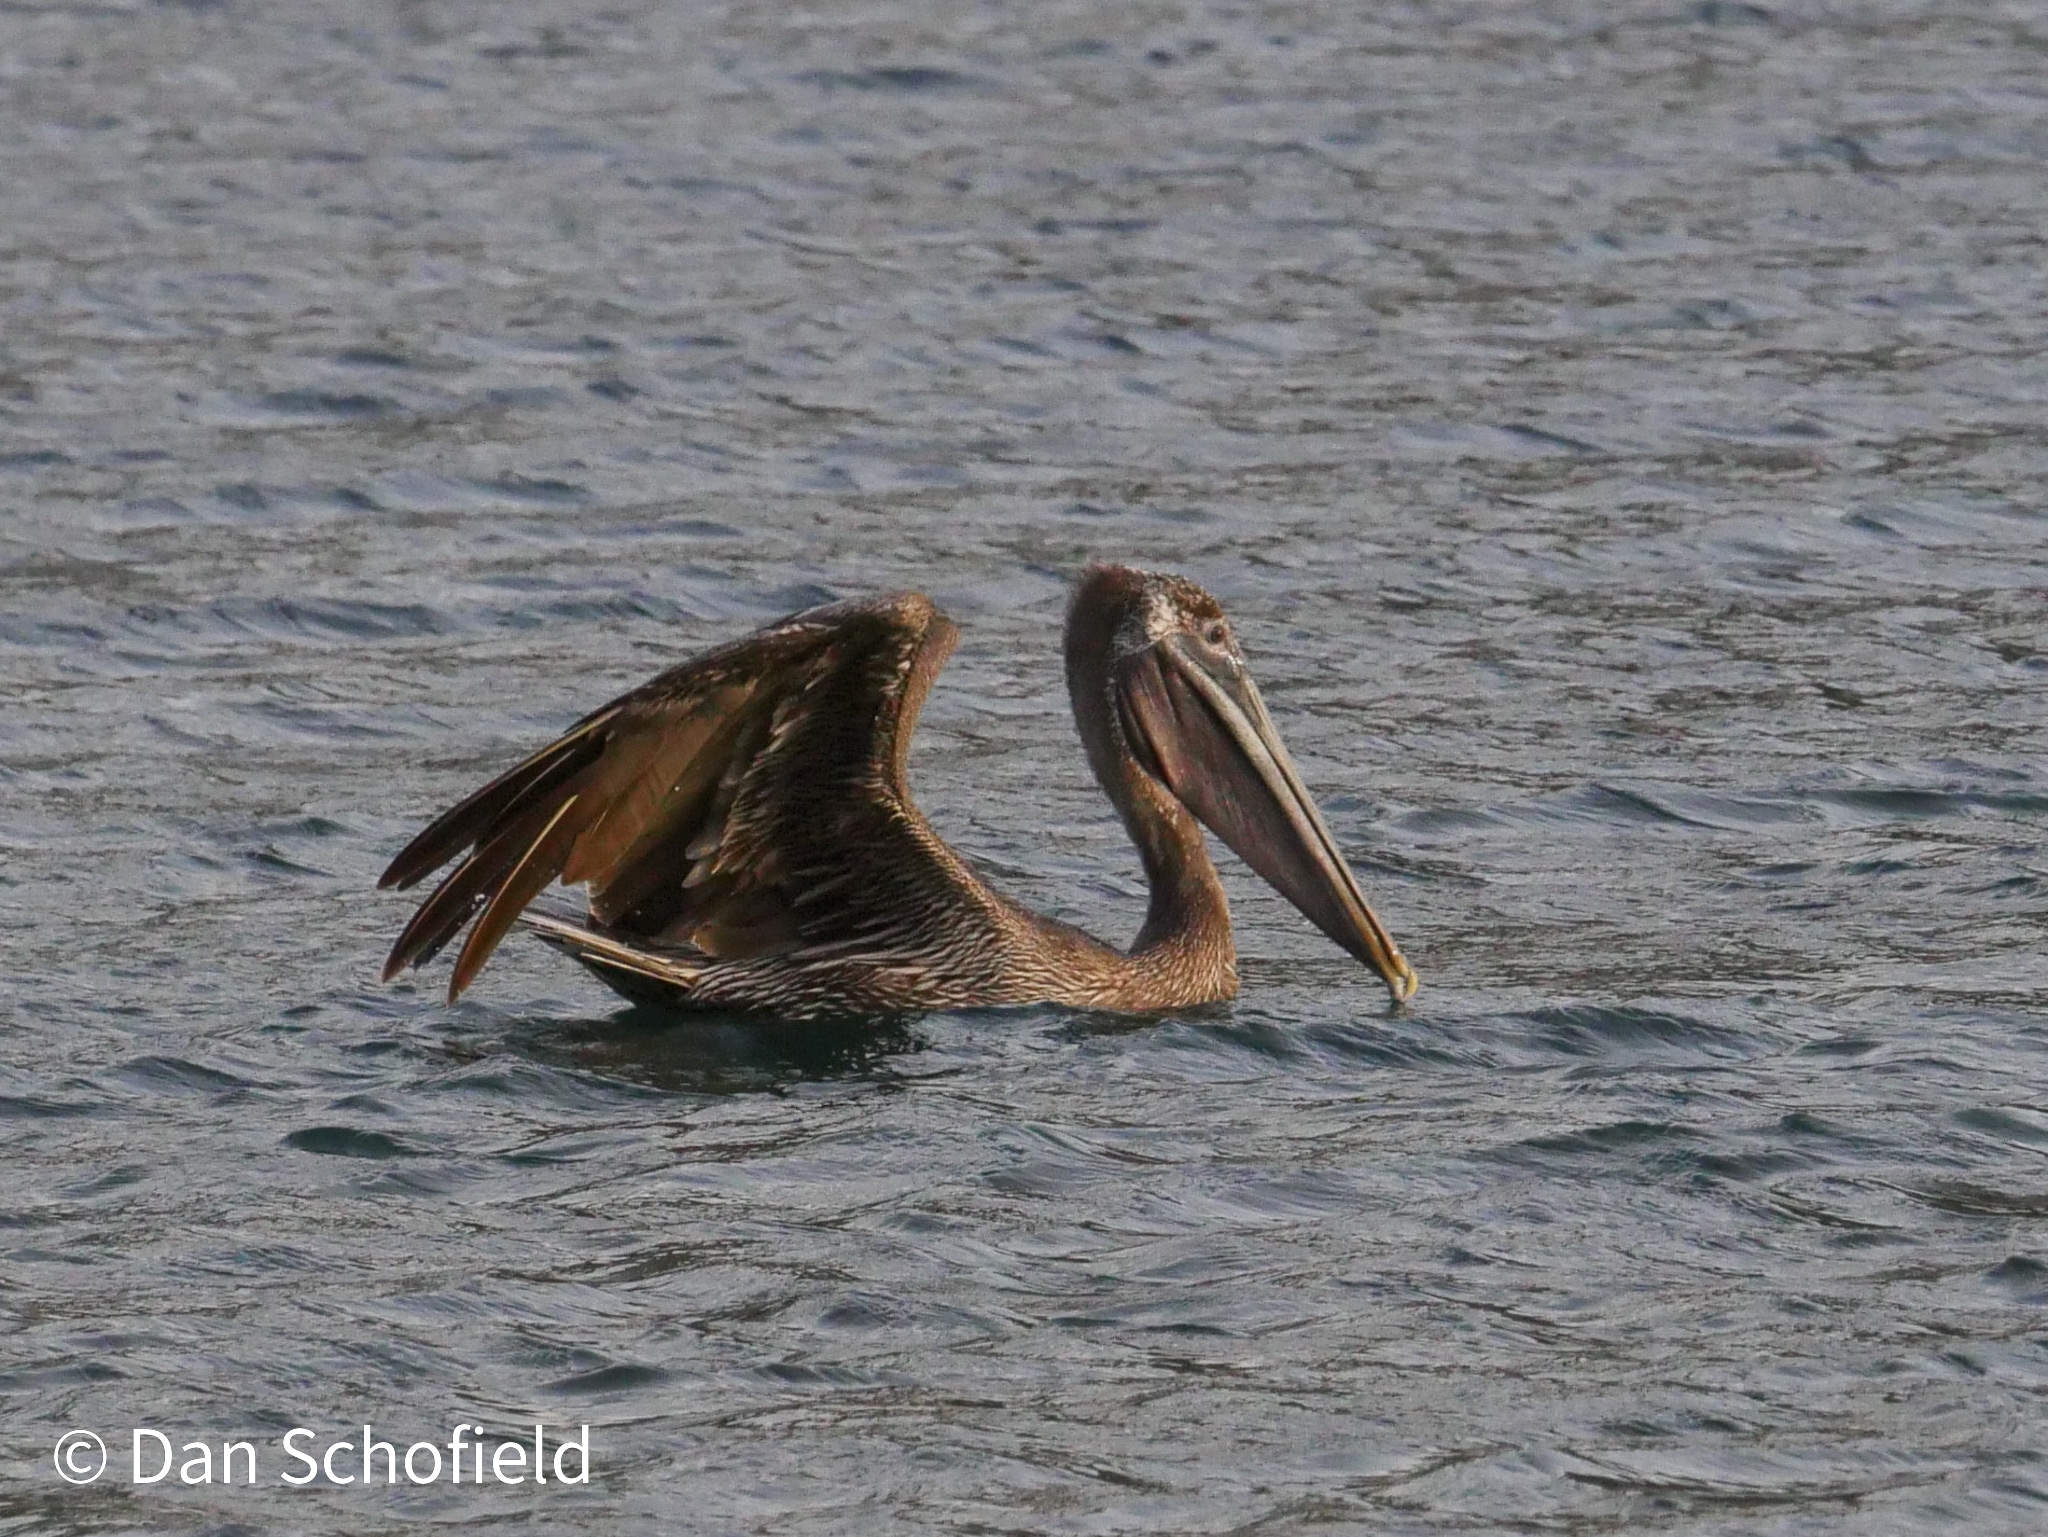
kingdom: Animalia
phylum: Chordata
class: Aves
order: Pelecaniformes
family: Pelecanidae
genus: Pelecanus
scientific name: Pelecanus occidentalis
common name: Brown pelican
